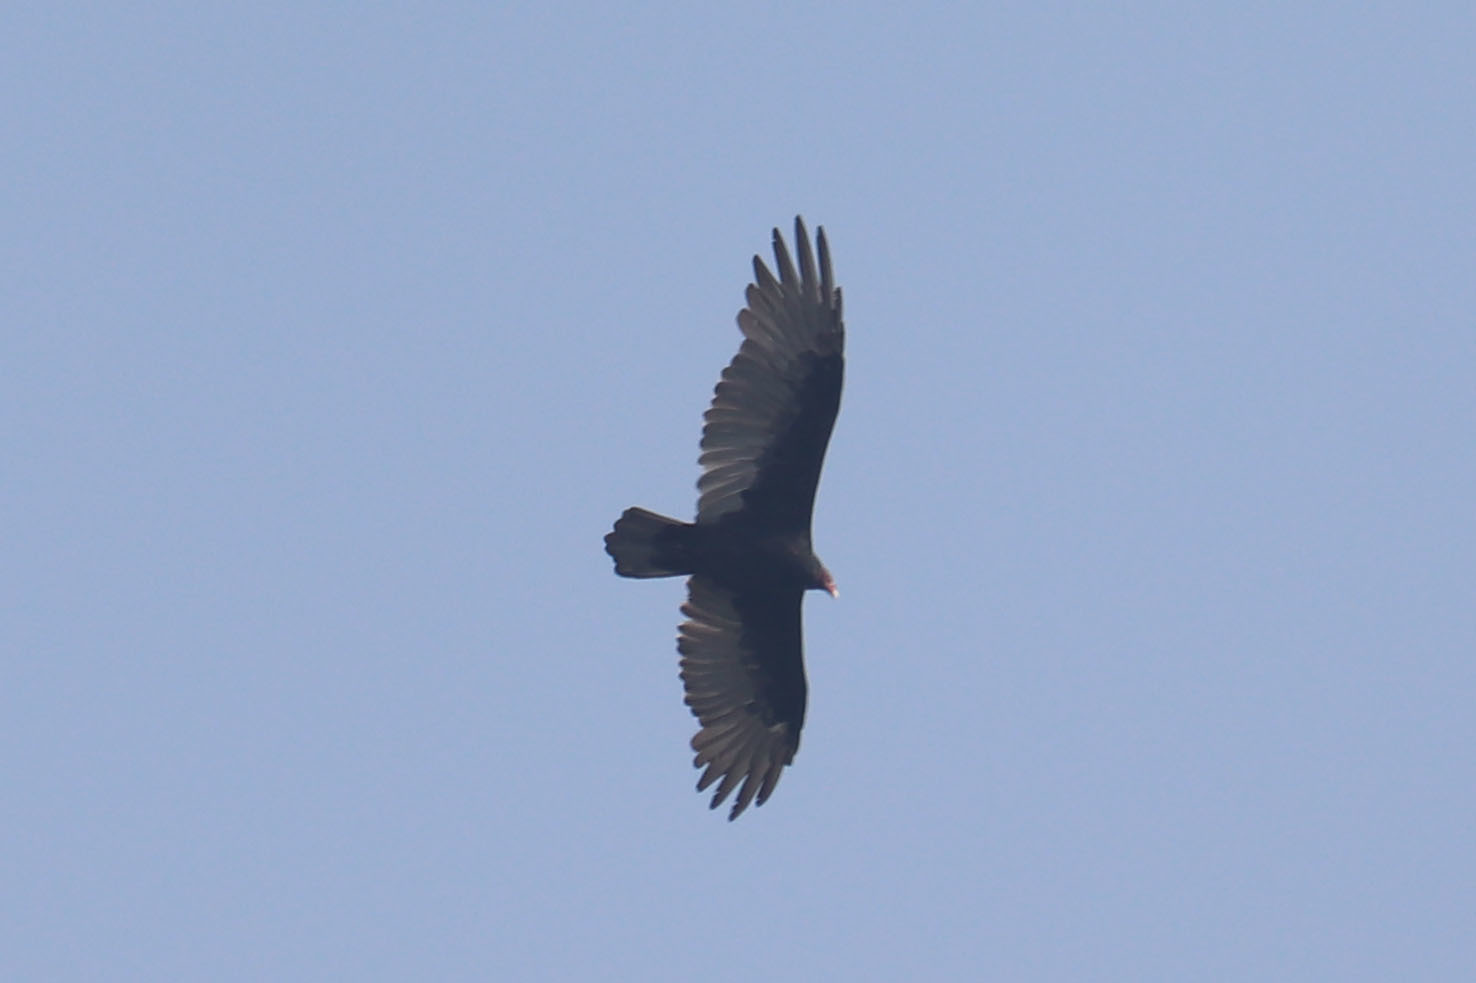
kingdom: Animalia
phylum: Chordata
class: Aves
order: Accipitriformes
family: Cathartidae
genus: Cathartes
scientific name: Cathartes aura
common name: Turkey vulture
